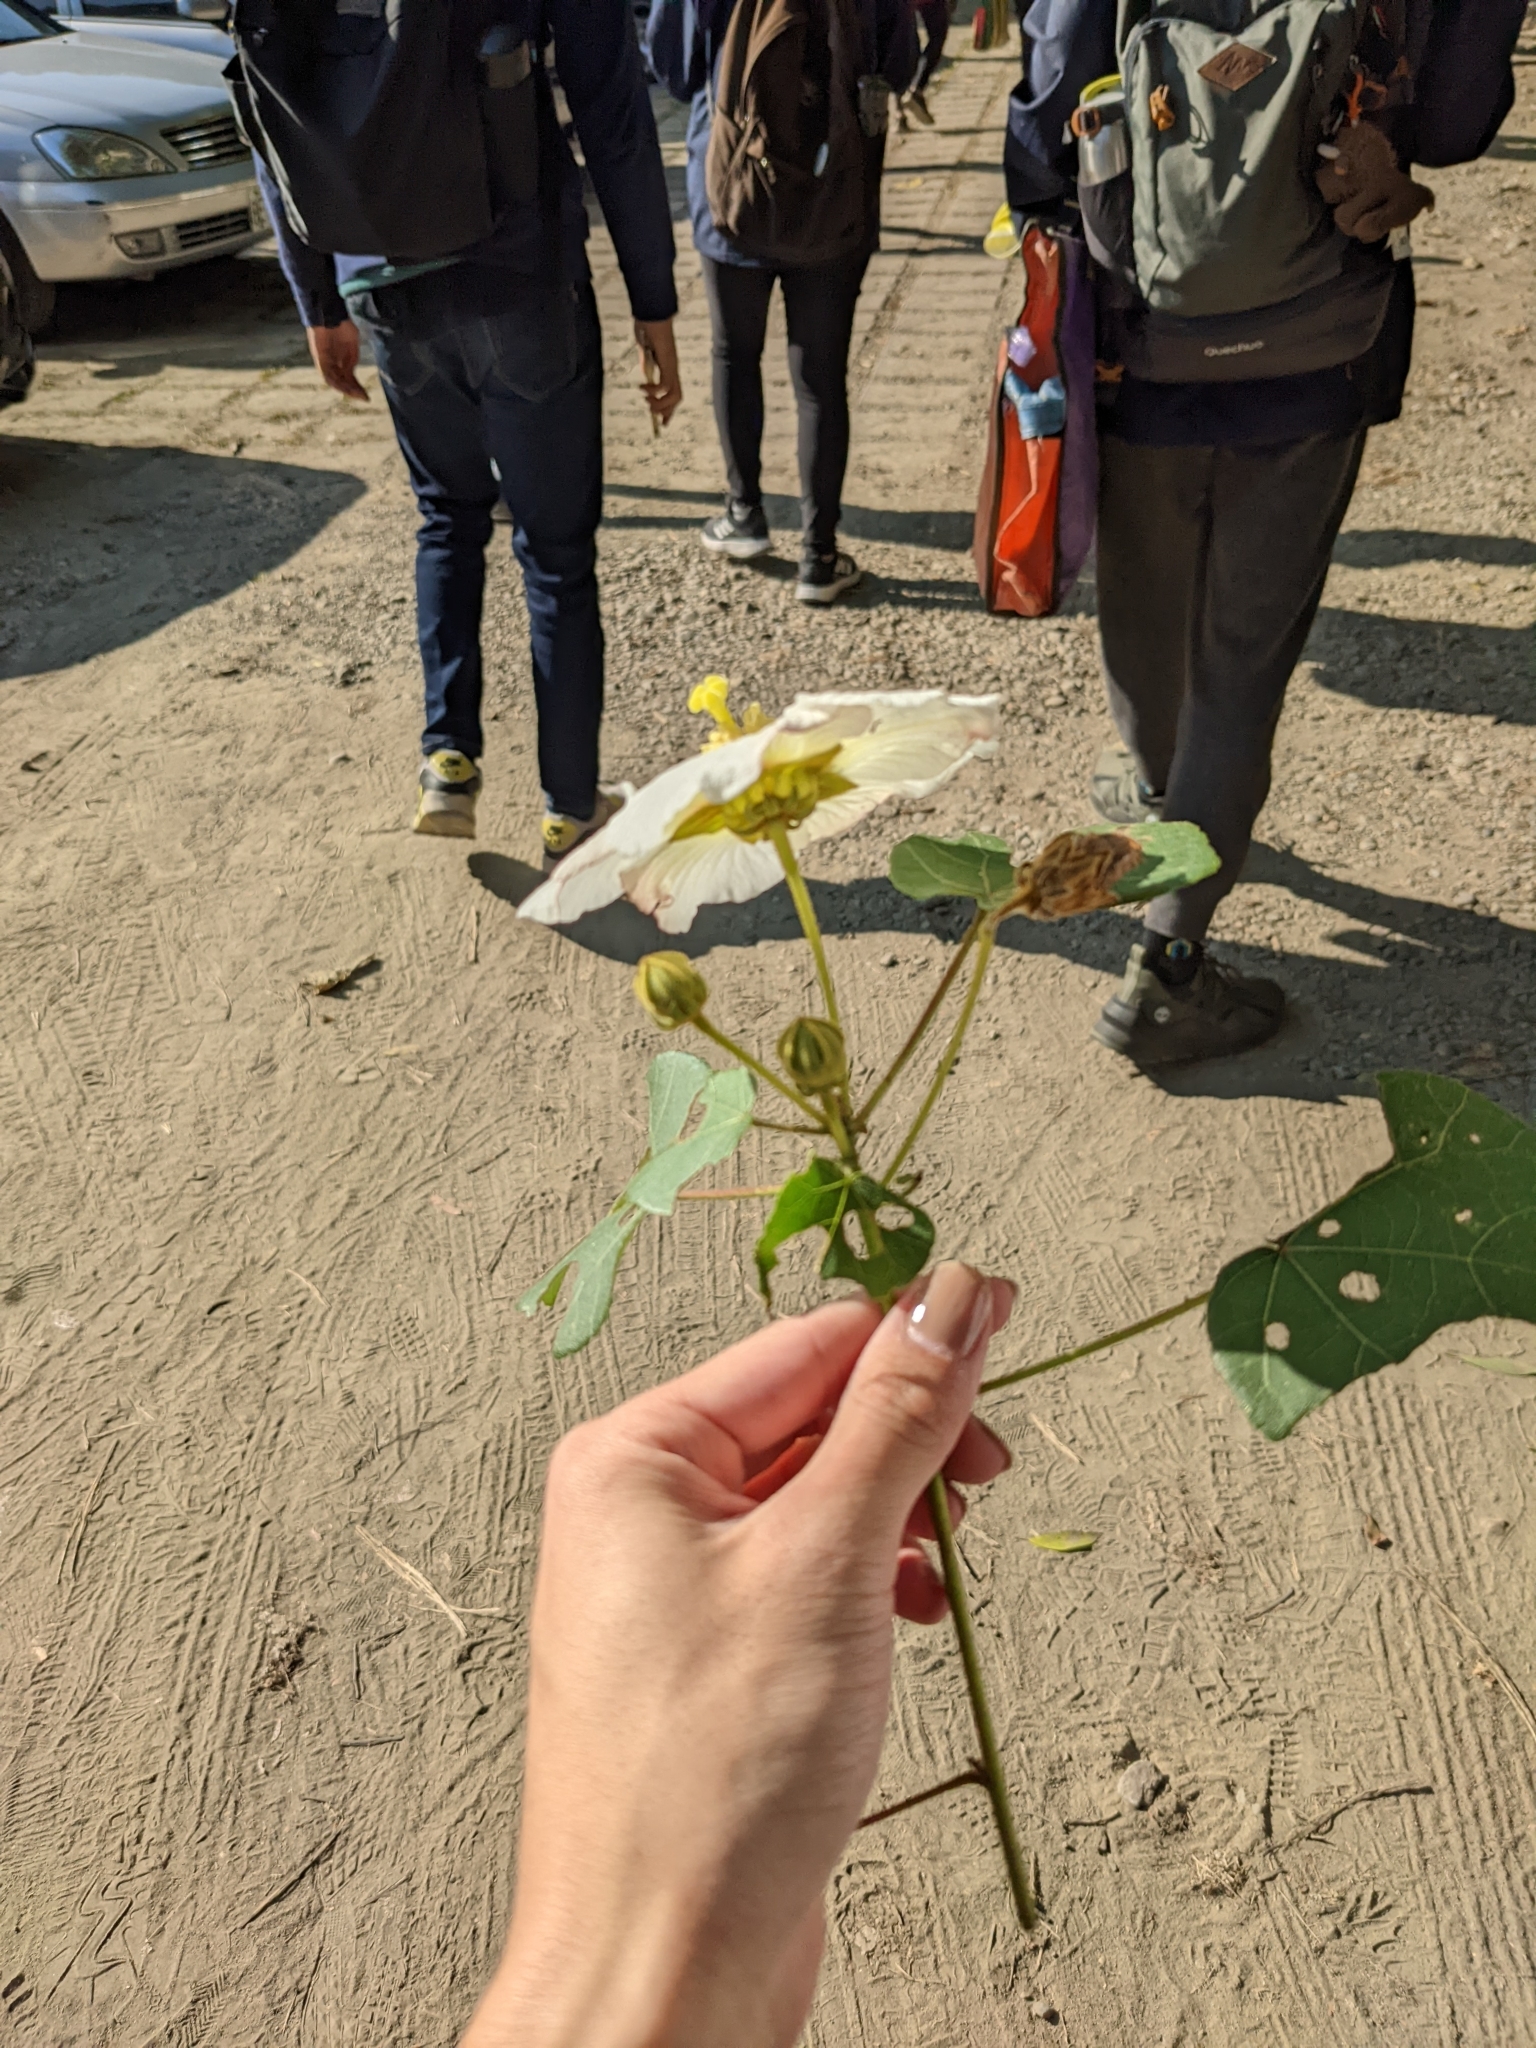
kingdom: Plantae
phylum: Tracheophyta
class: Magnoliopsida
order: Malvales
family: Malvaceae
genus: Hibiscus
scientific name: Hibiscus taiwanensis
